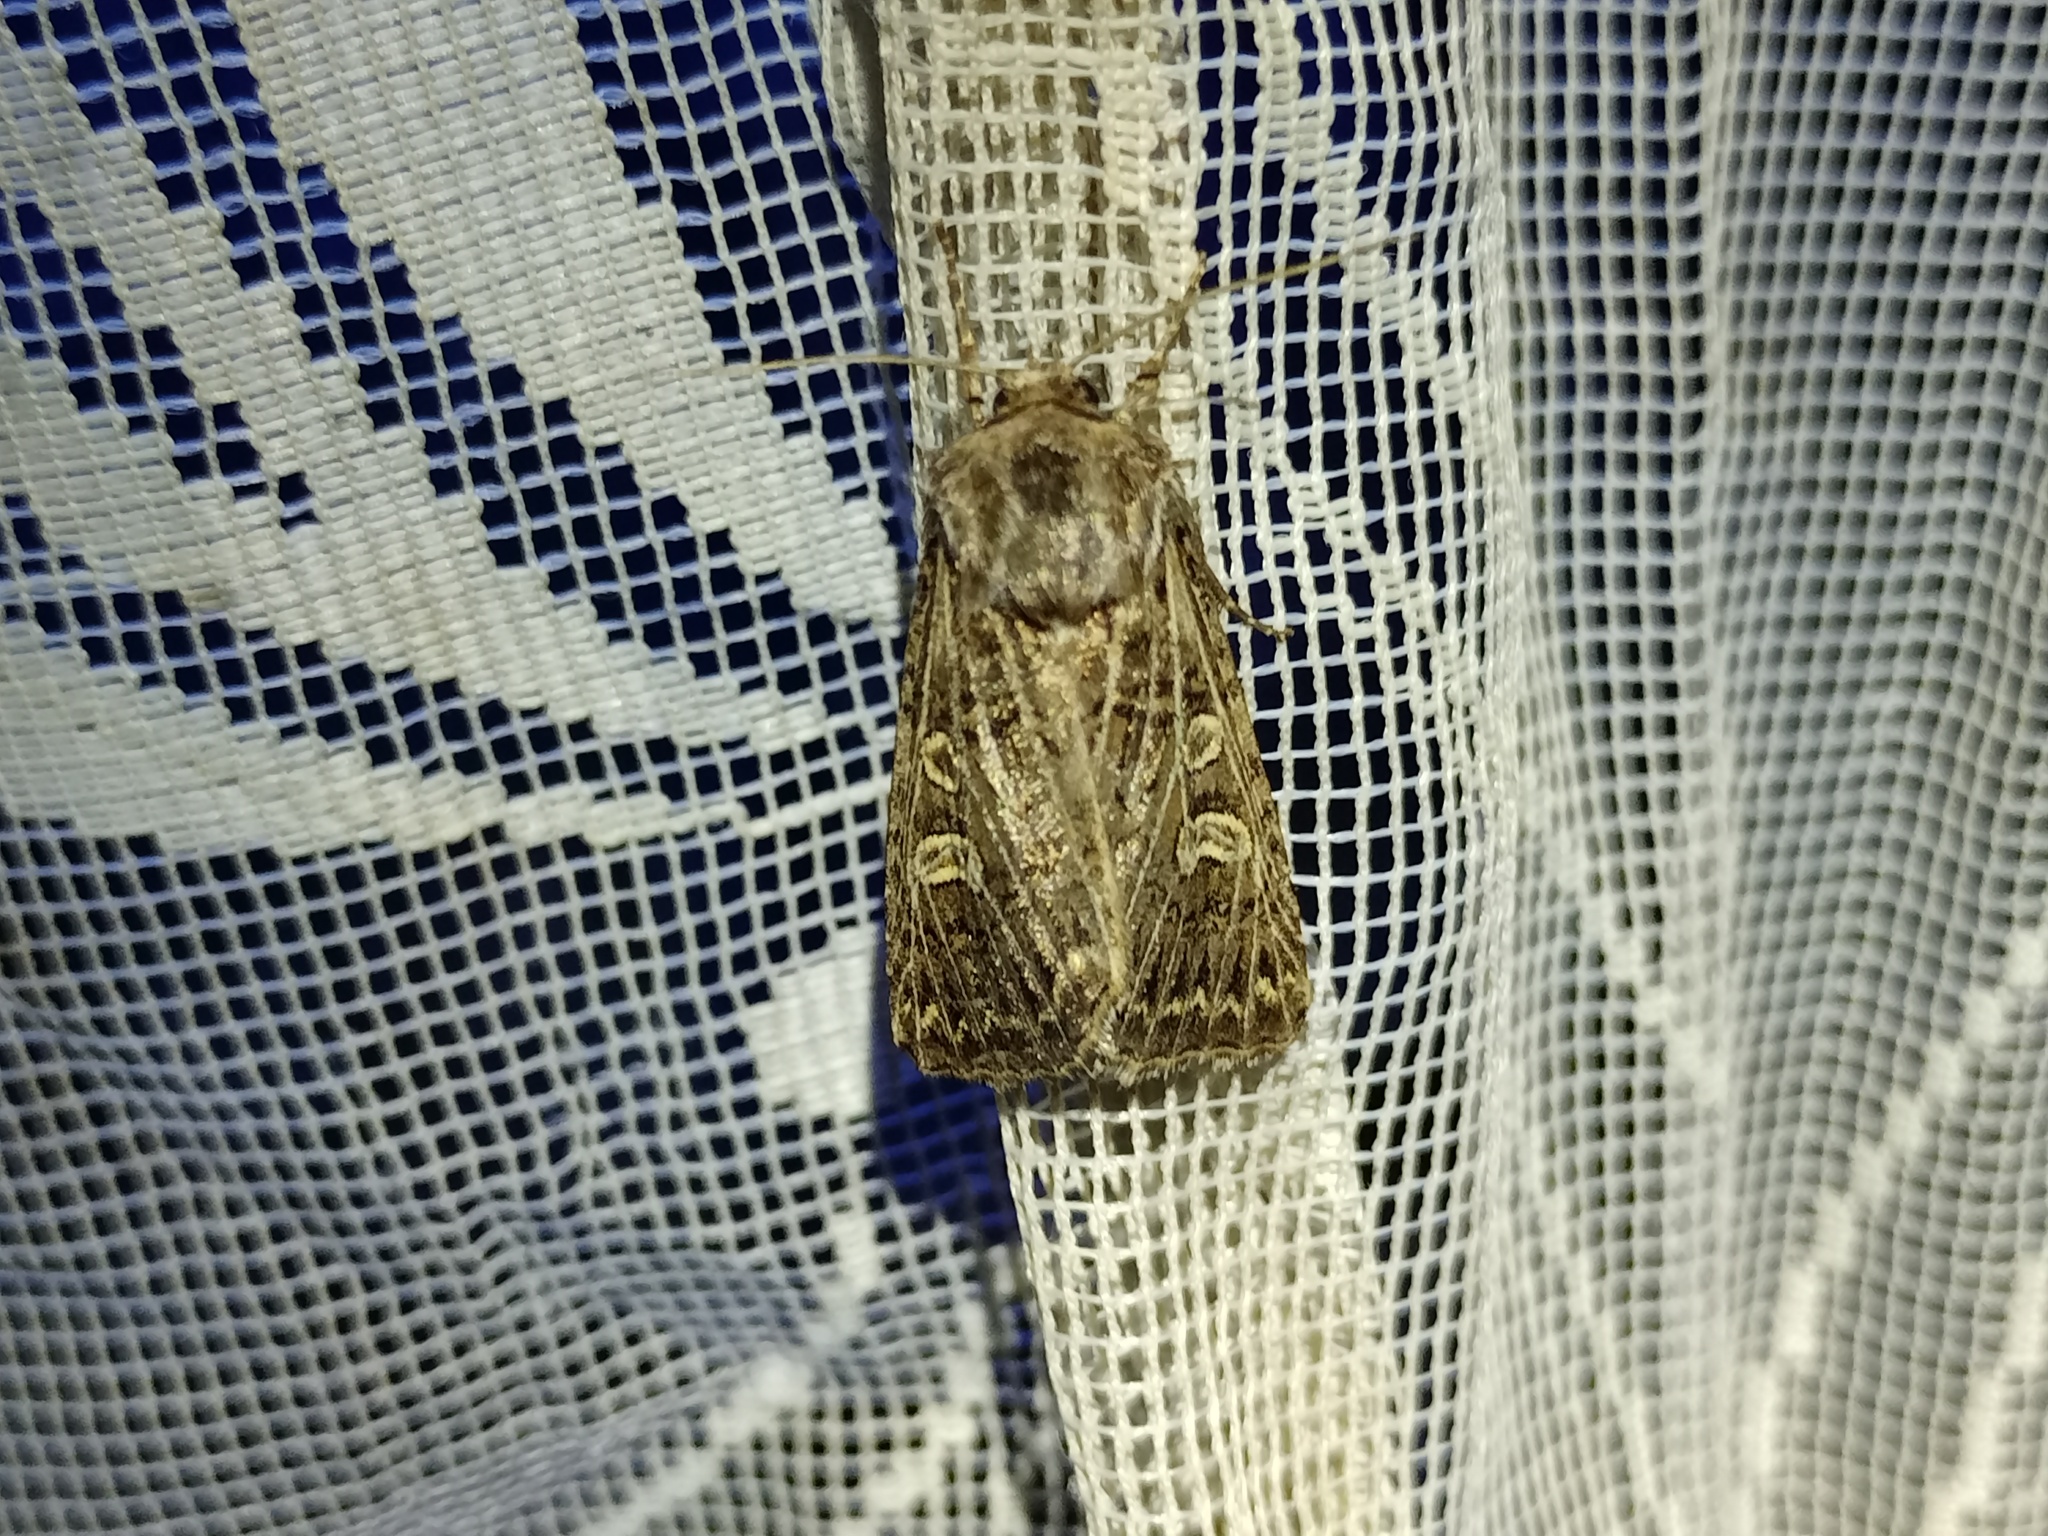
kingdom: Animalia
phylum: Arthropoda
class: Insecta
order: Lepidoptera
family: Noctuidae
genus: Tholera
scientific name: Tholera decimalis
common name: Feathered gothic
